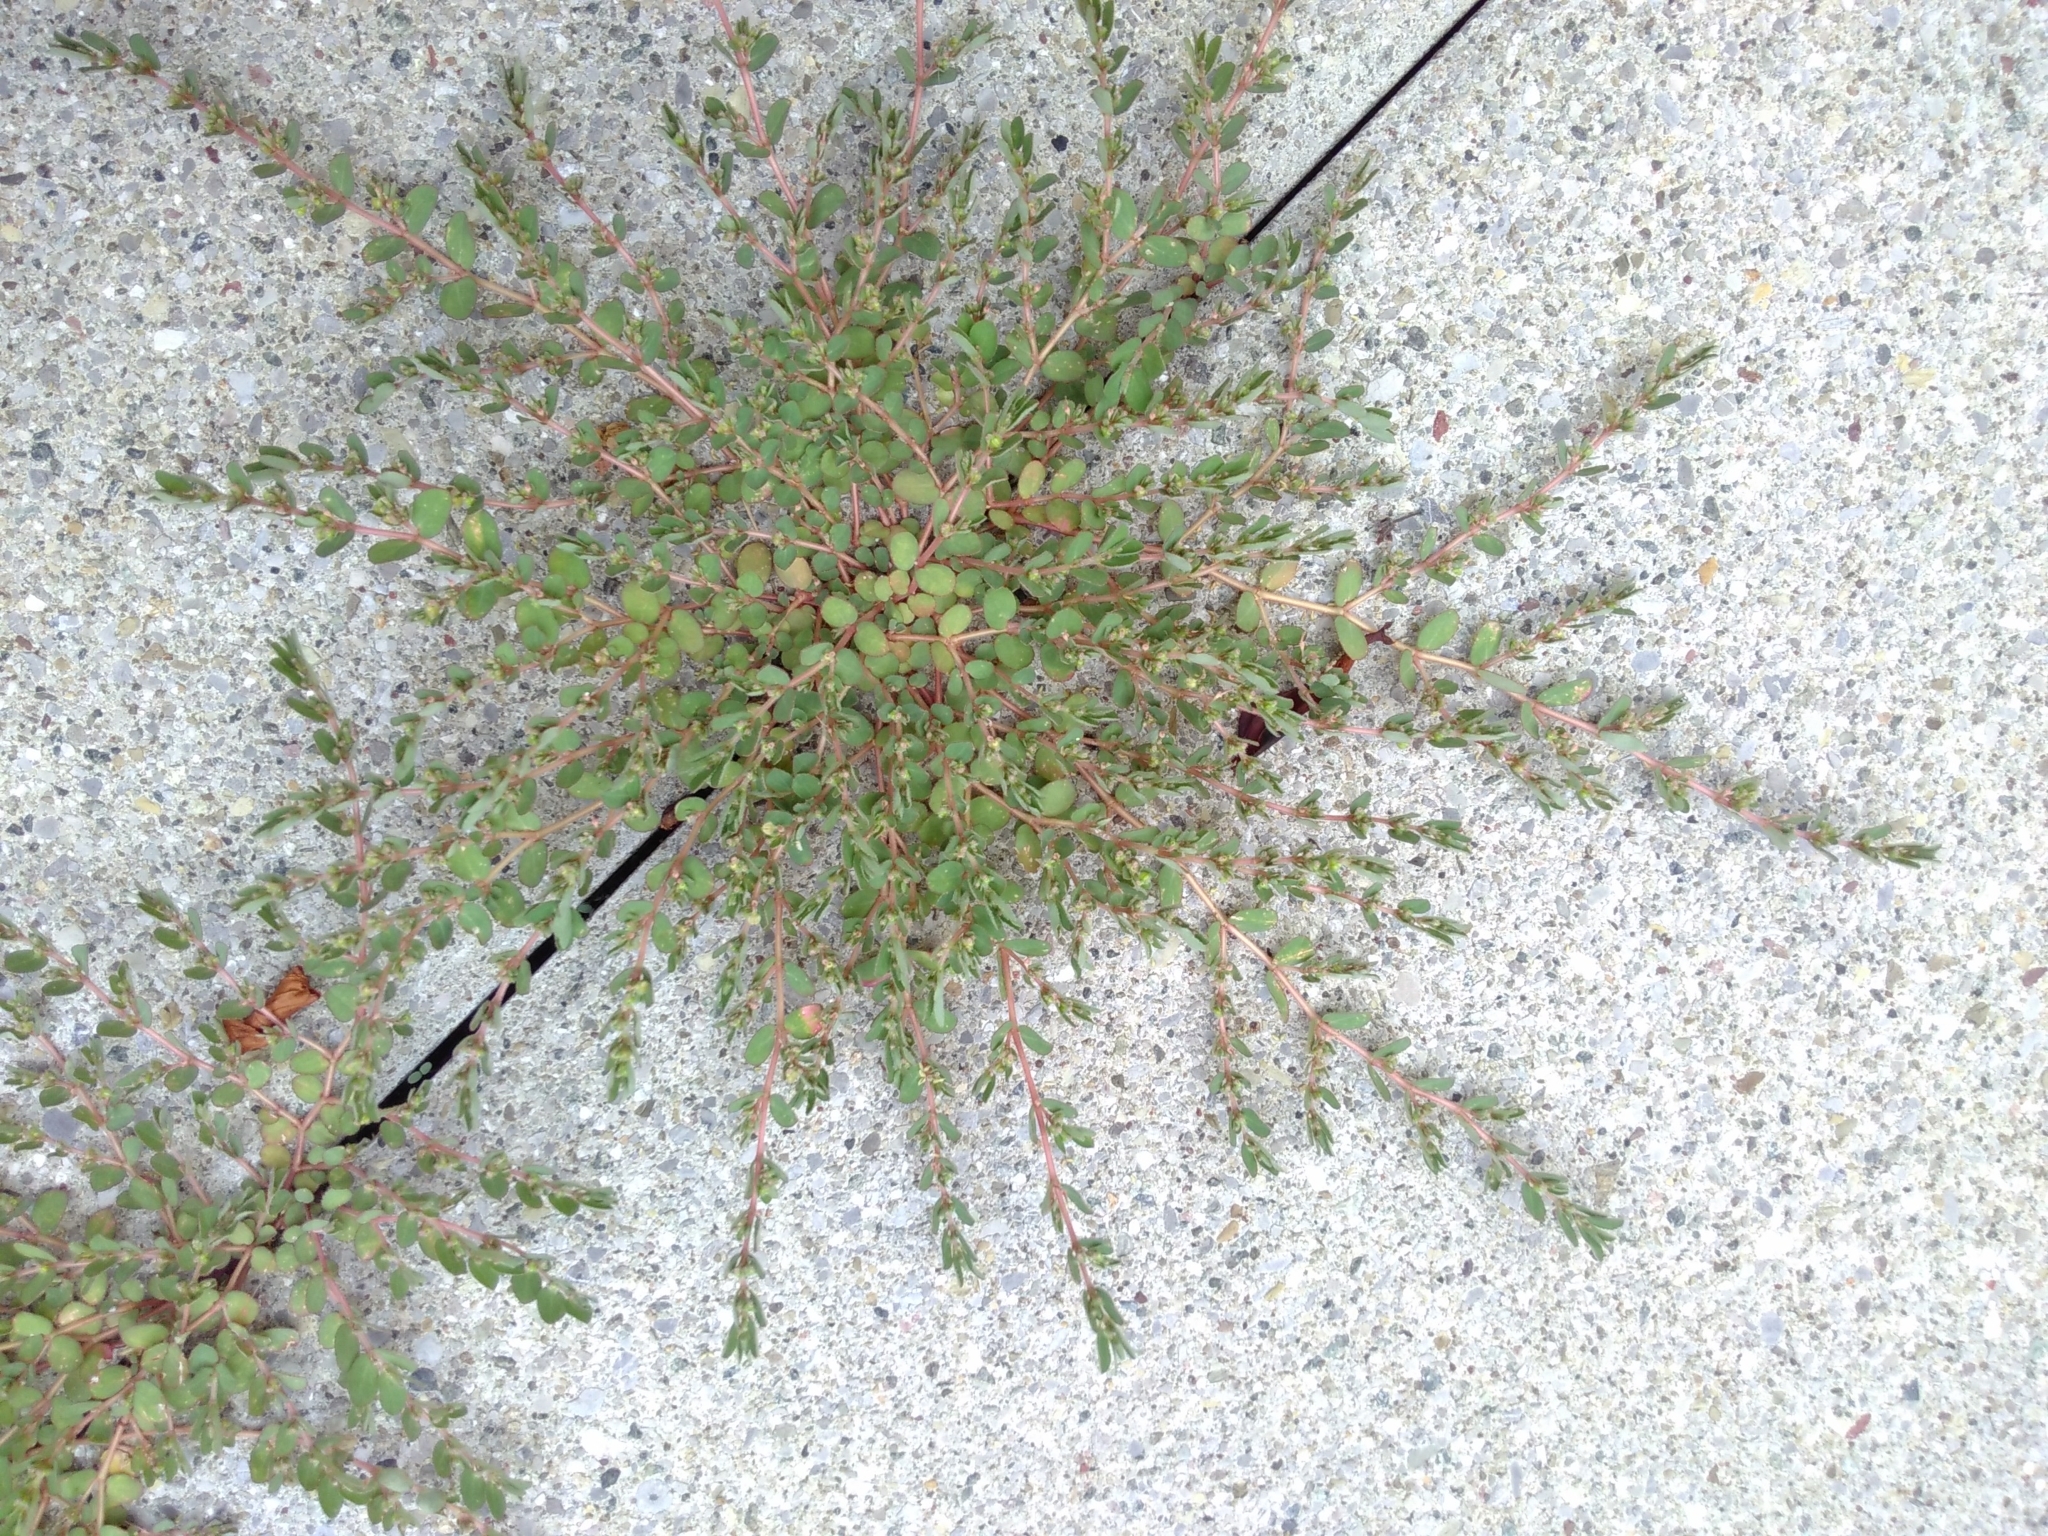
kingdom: Plantae
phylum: Tracheophyta
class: Magnoliopsida
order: Malpighiales
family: Euphorbiaceae
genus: Euphorbia
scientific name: Euphorbia prostrata
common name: Prostrate sandmat
